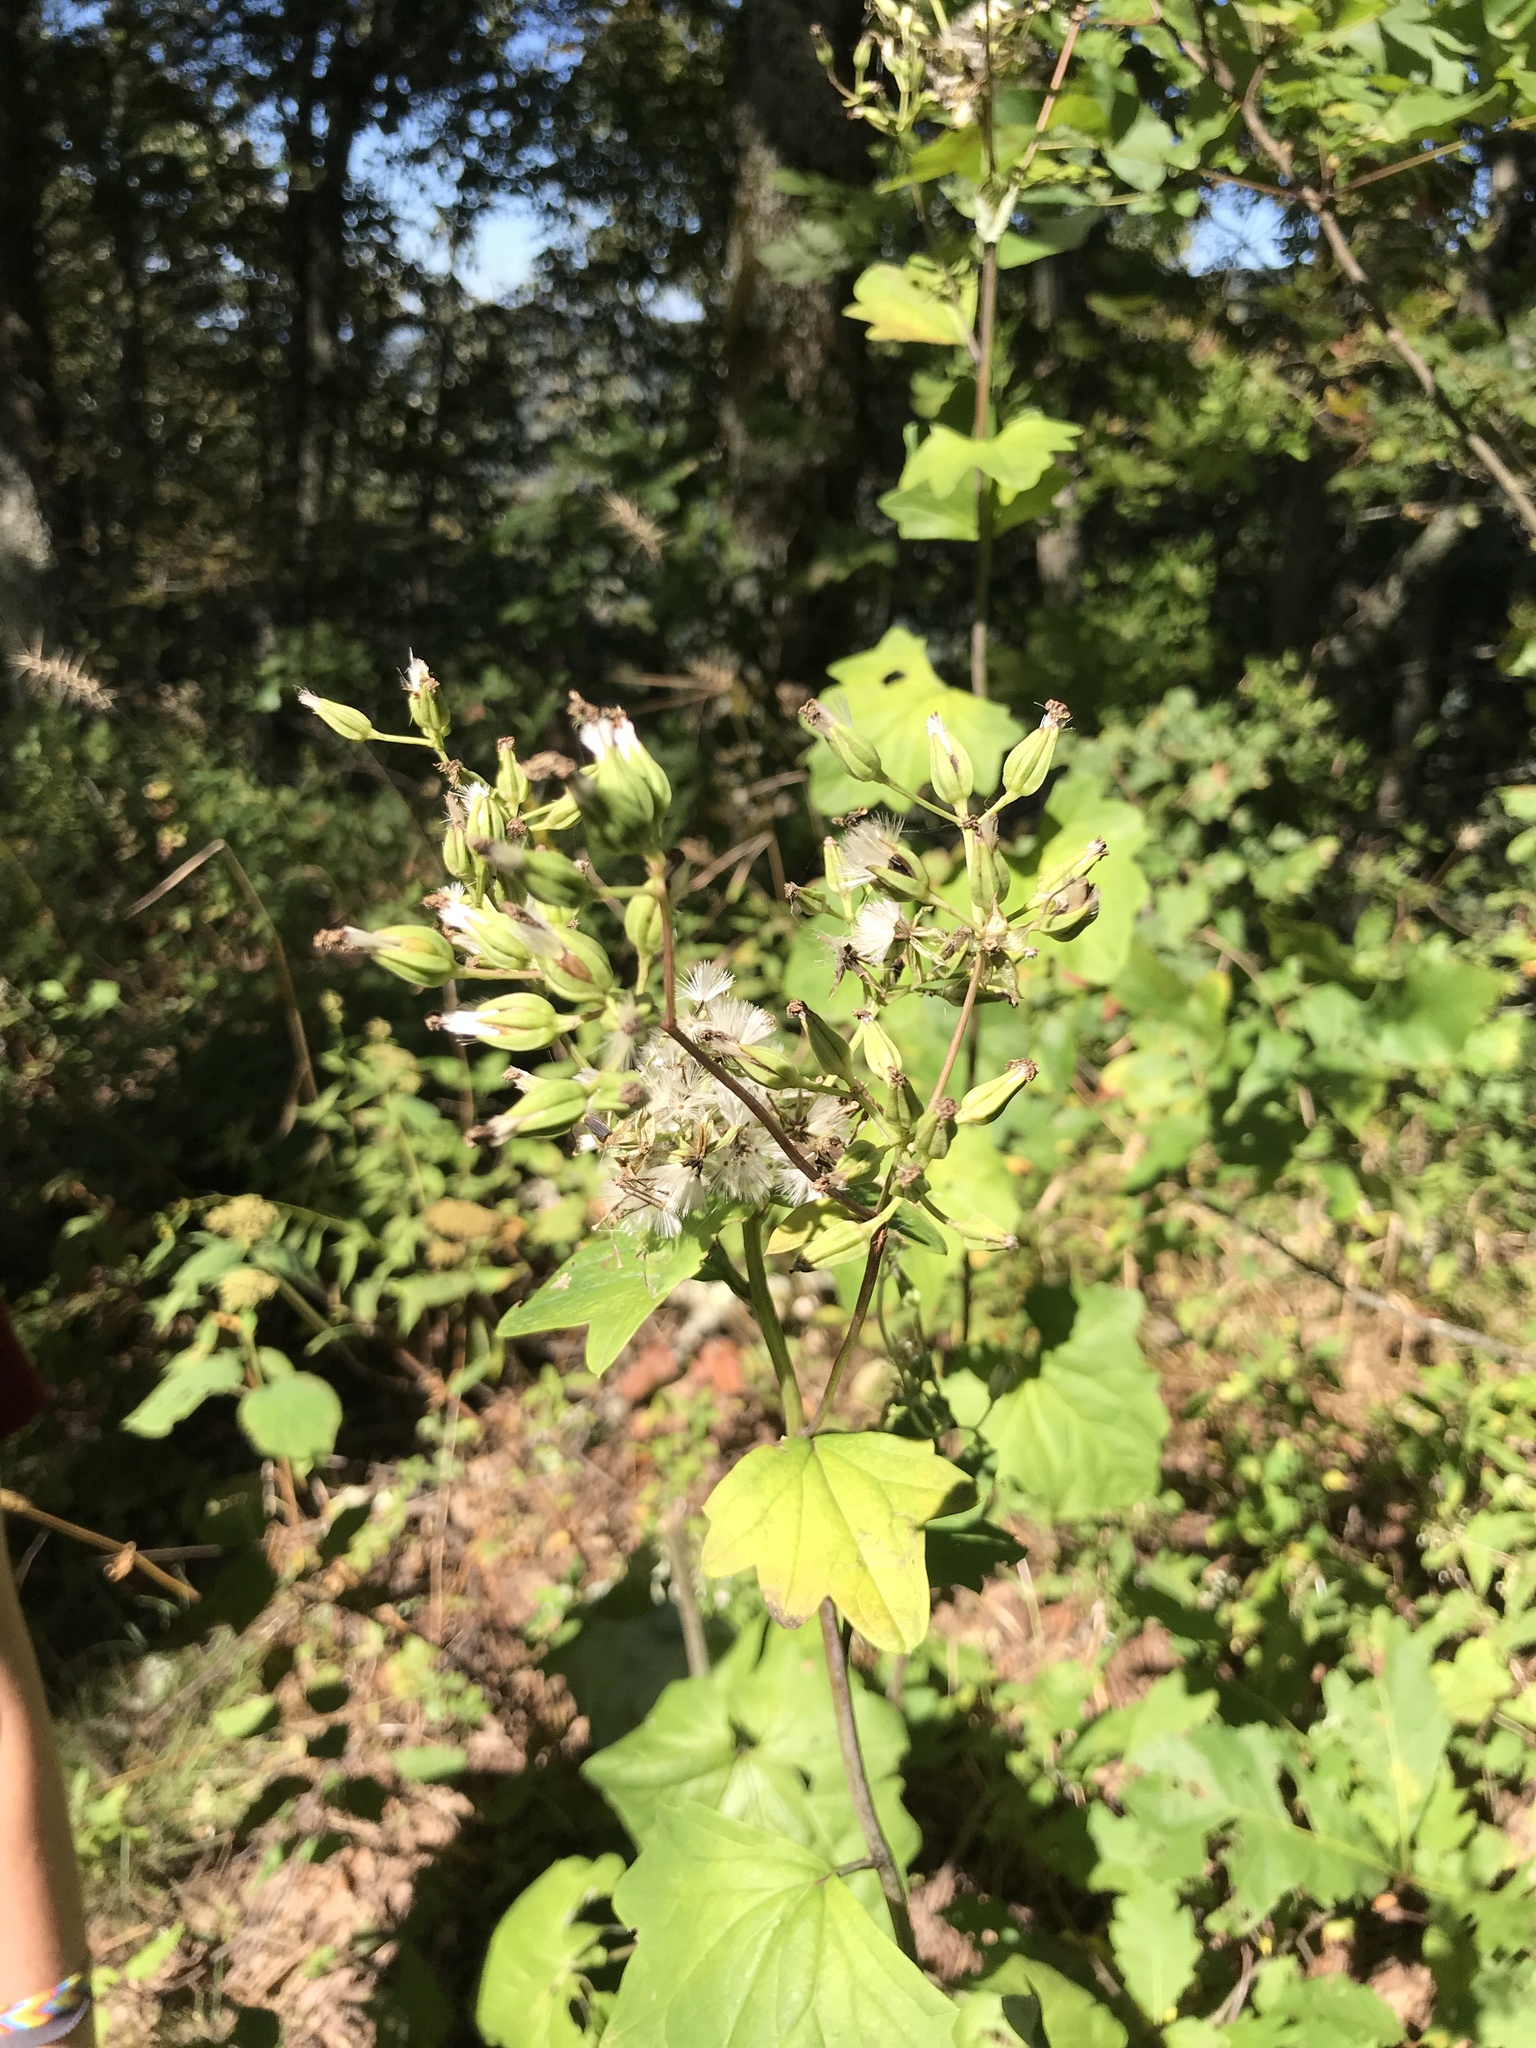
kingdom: Plantae
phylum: Tracheophyta
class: Magnoliopsida
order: Asterales
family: Asteraceae
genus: Arnoglossum
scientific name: Arnoglossum atriplicifolium
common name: Pale indian-plantain
